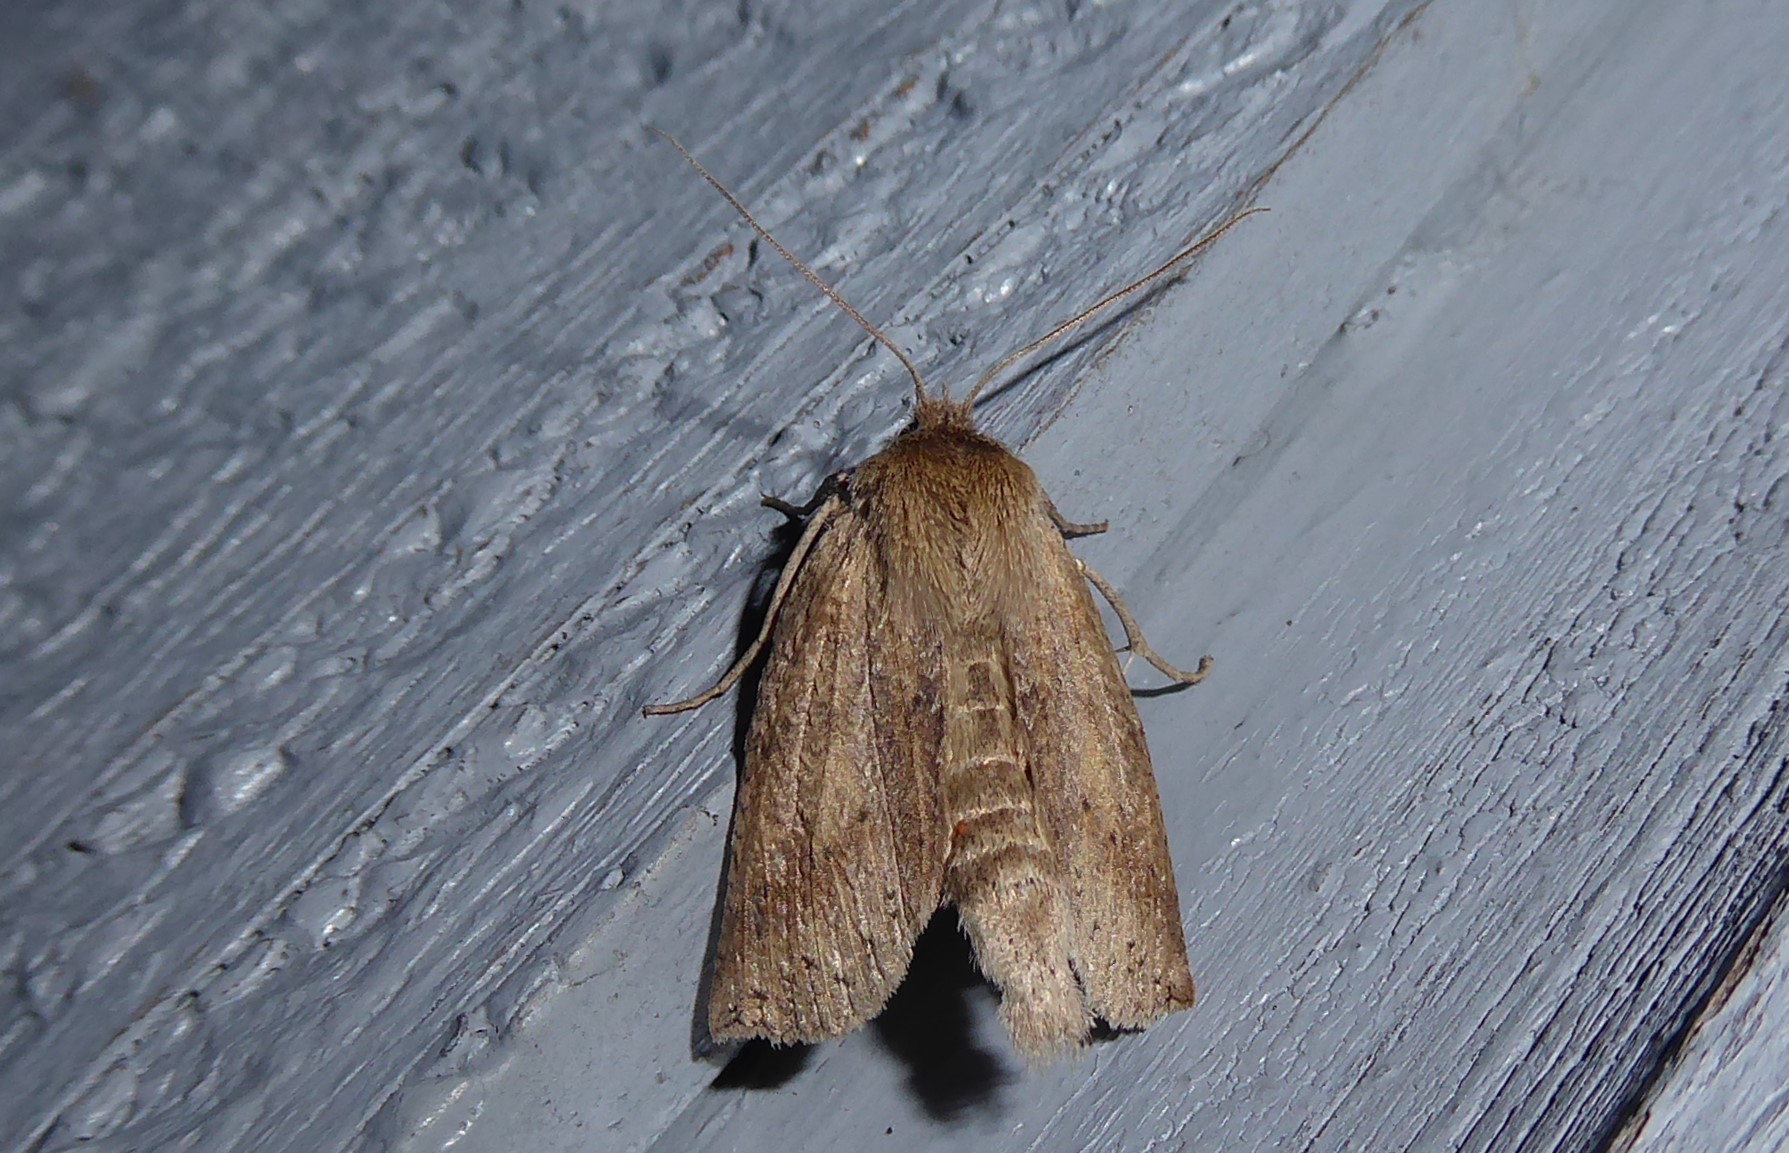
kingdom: Animalia
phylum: Arthropoda
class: Insecta
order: Lepidoptera
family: Geometridae
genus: Declana
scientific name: Declana leptomera
